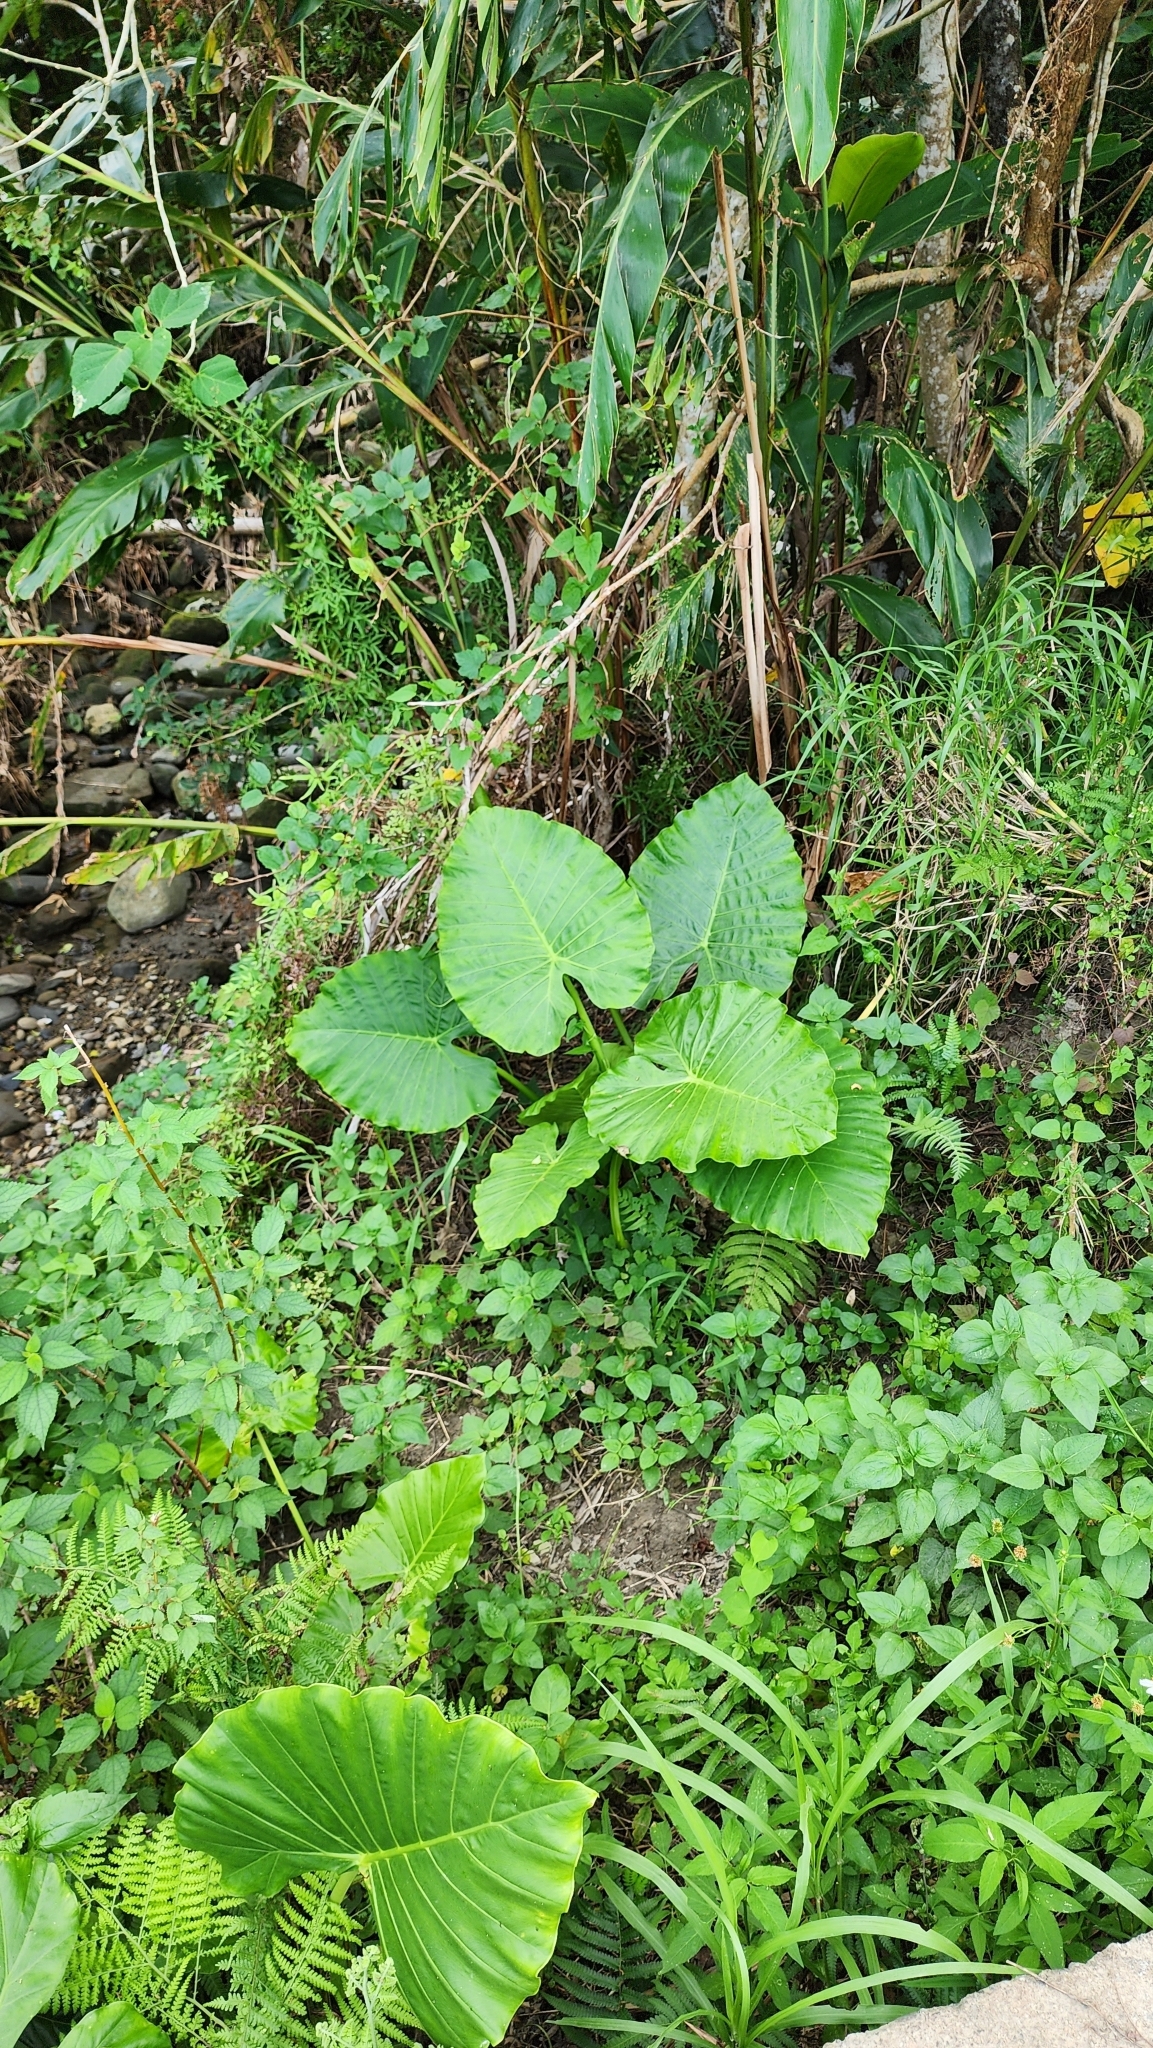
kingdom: Plantae
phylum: Tracheophyta
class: Liliopsida
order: Alismatales
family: Araceae
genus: Alocasia
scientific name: Alocasia odora
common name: Asian taro
